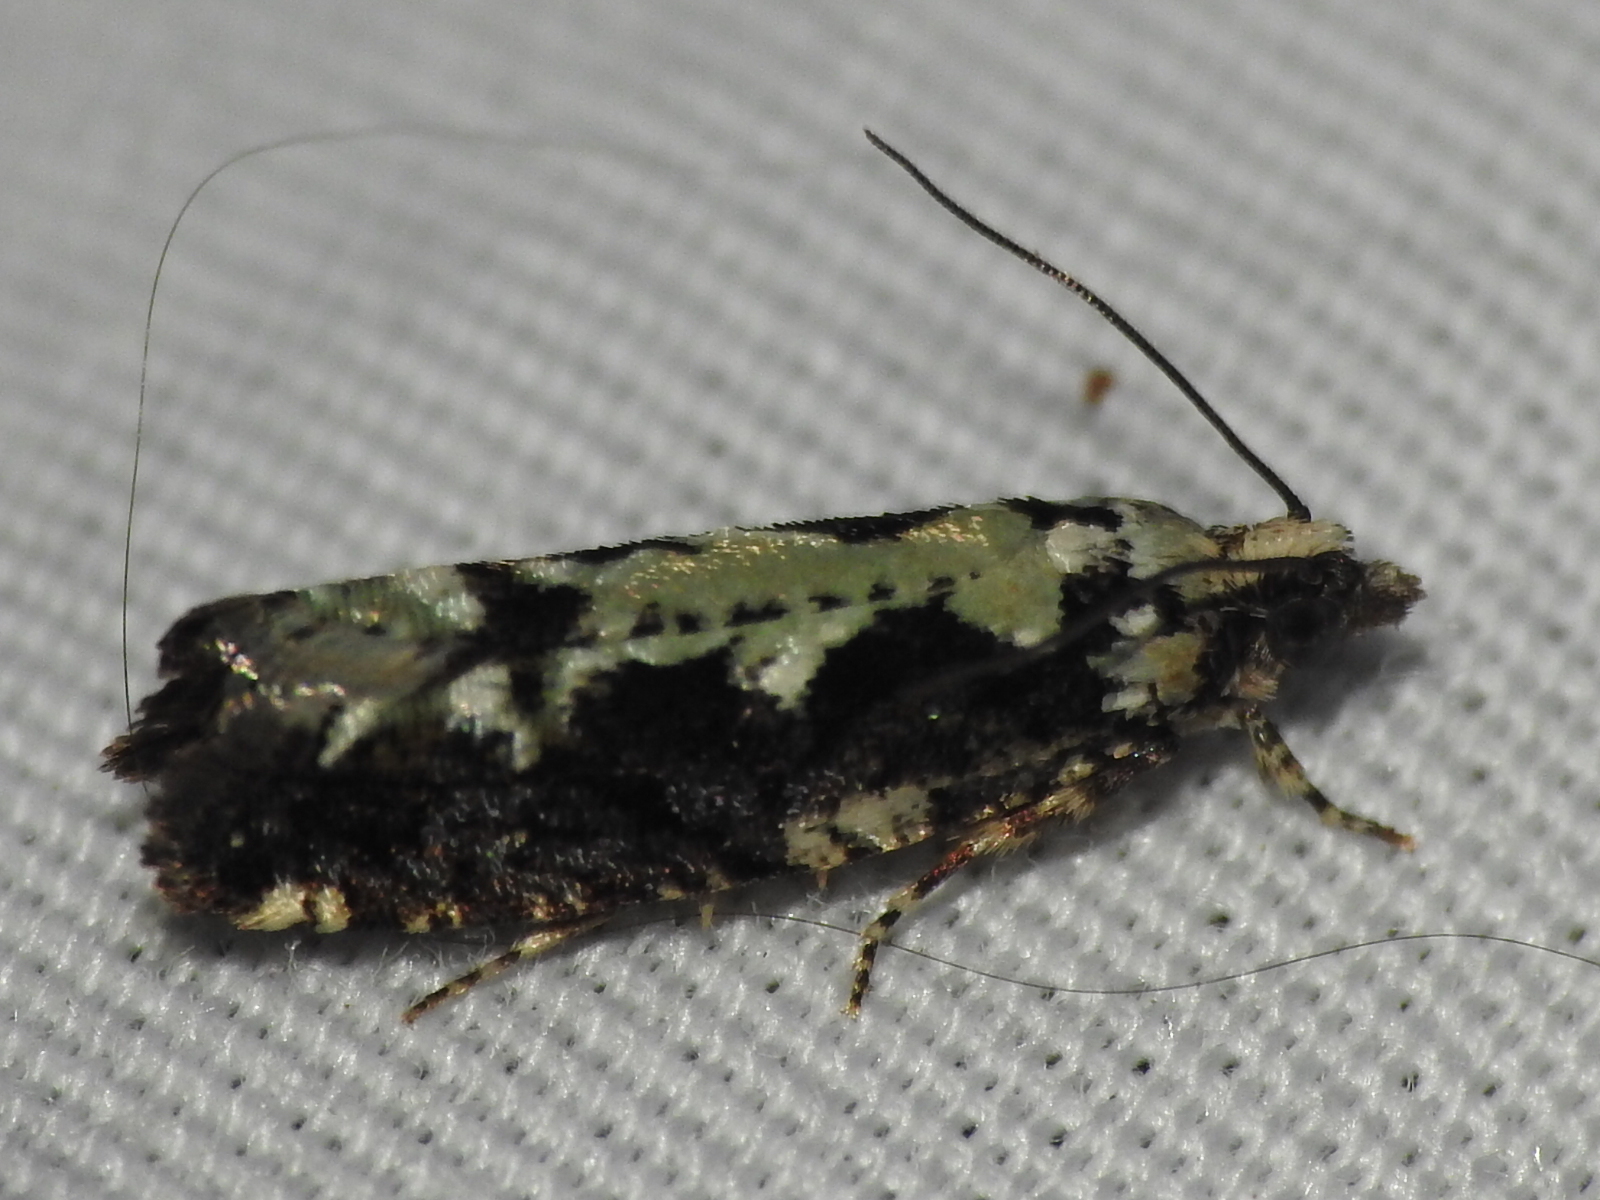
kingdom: Animalia
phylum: Arthropoda
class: Insecta
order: Lepidoptera
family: Tortricidae
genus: Chimoptesis
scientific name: Chimoptesis pennsylvaniana
